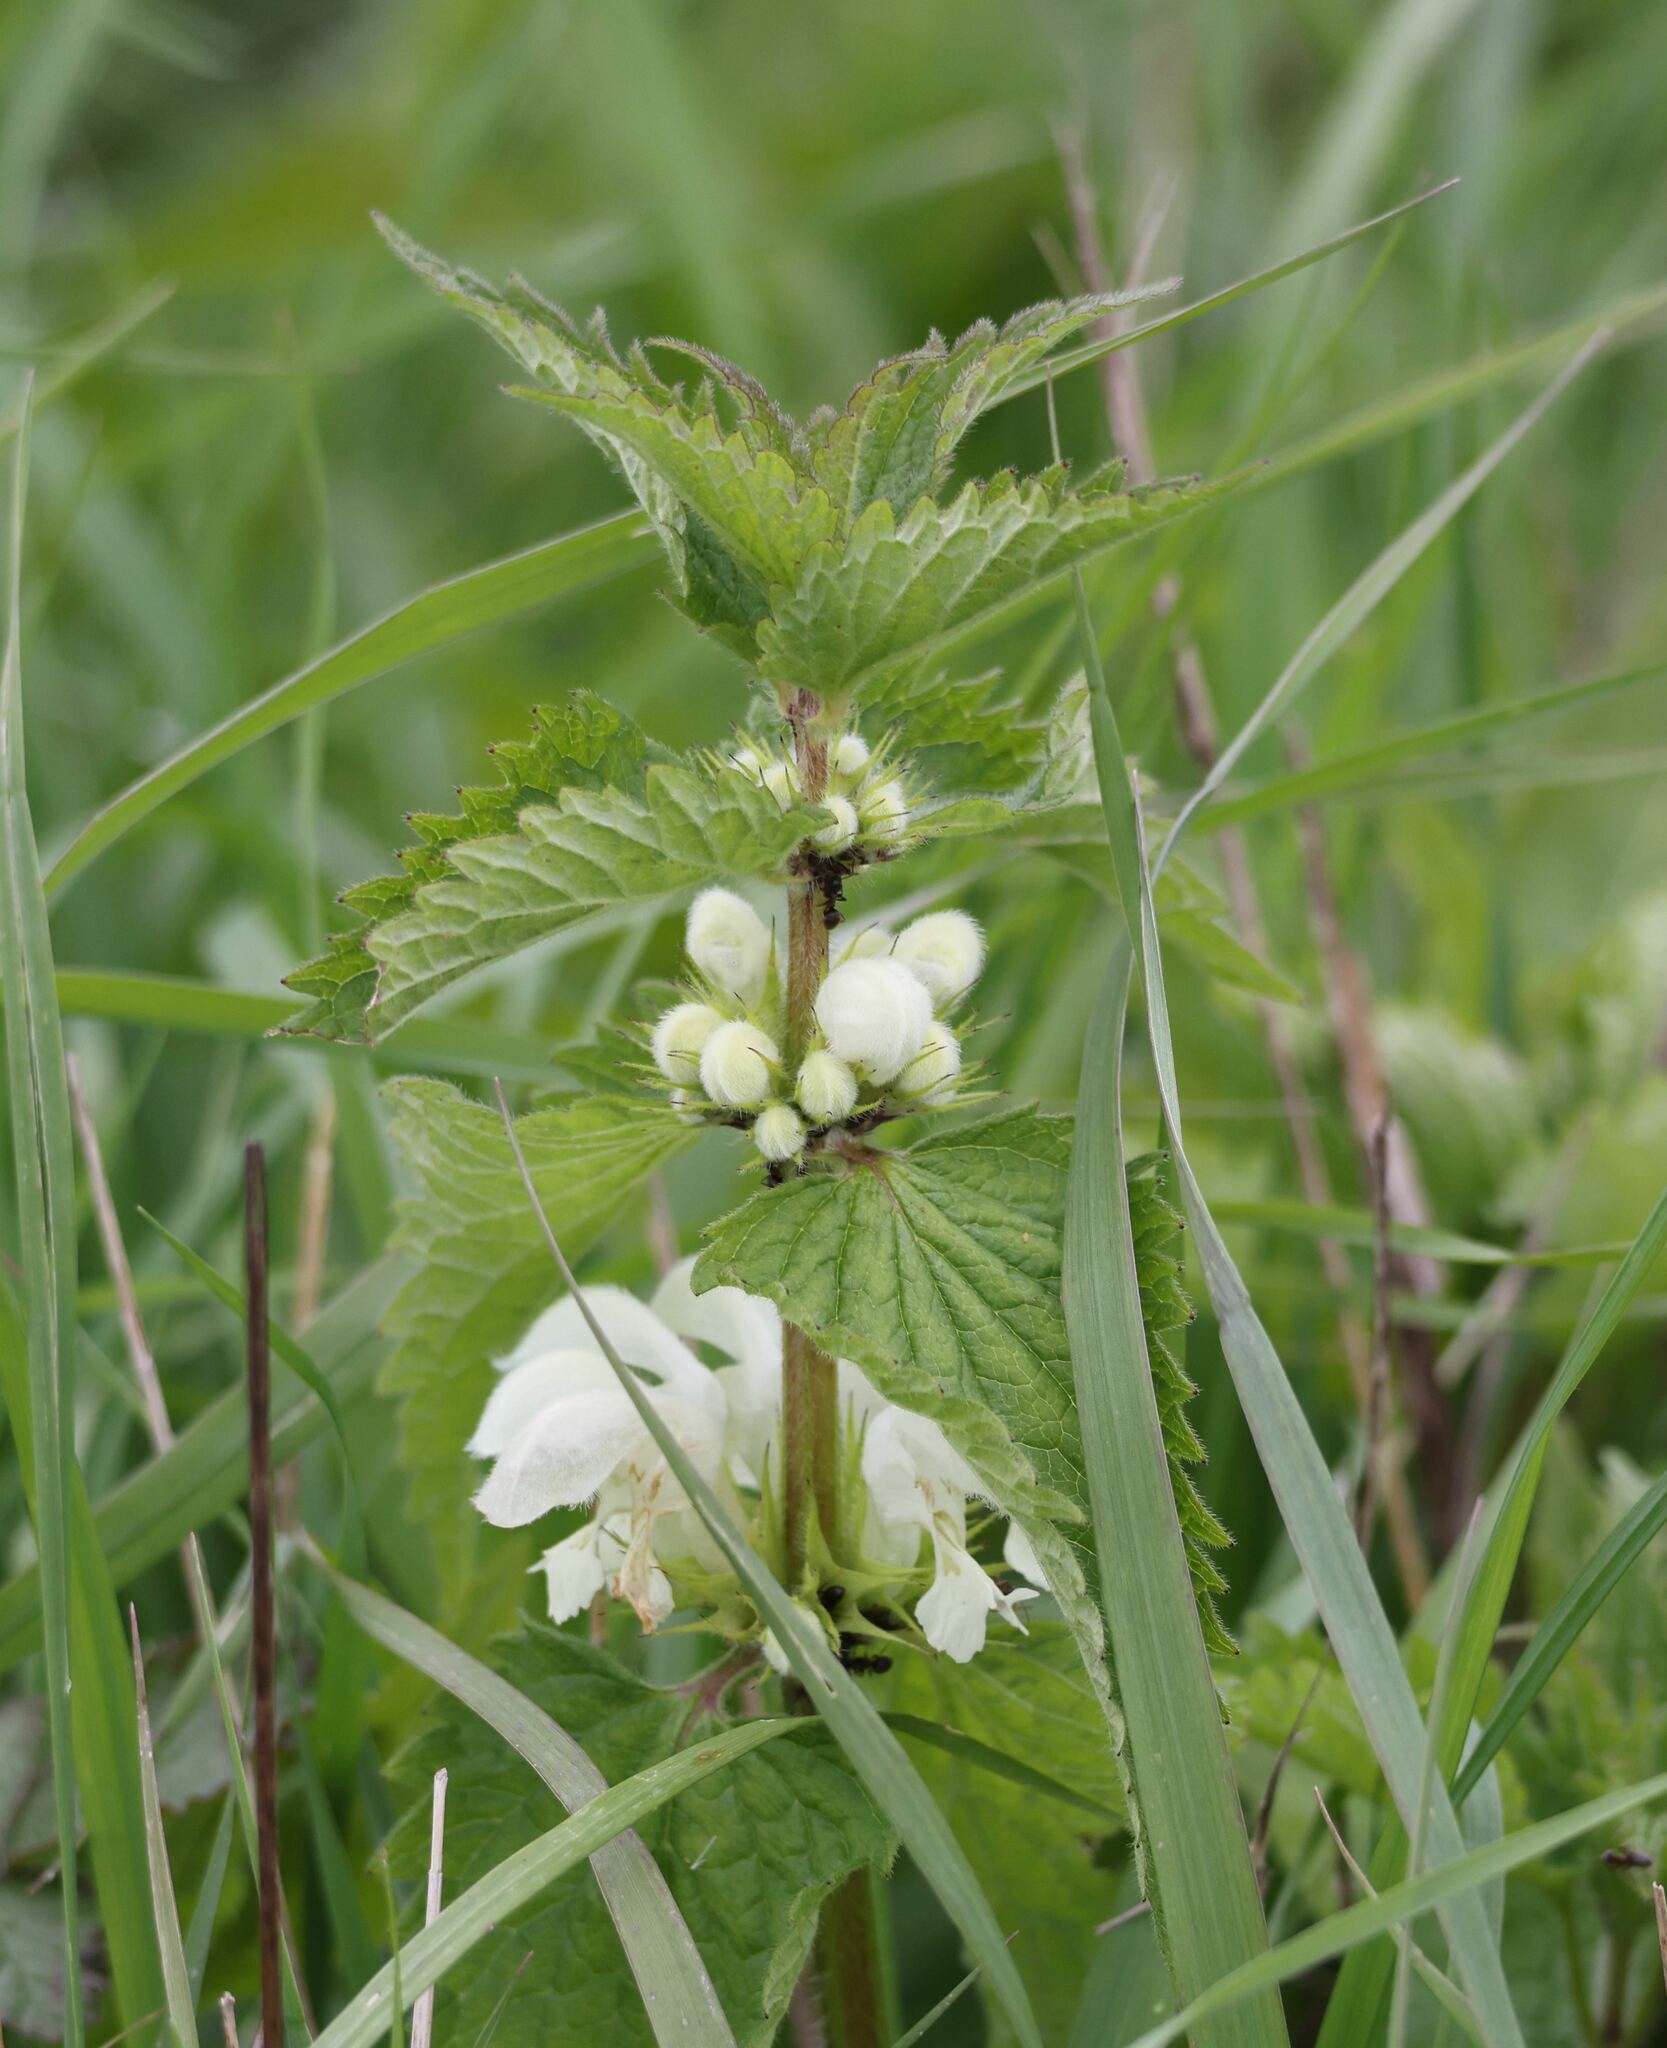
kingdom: Plantae
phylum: Tracheophyta
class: Magnoliopsida
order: Lamiales
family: Lamiaceae
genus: Lamium
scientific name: Lamium album
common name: White dead-nettle
